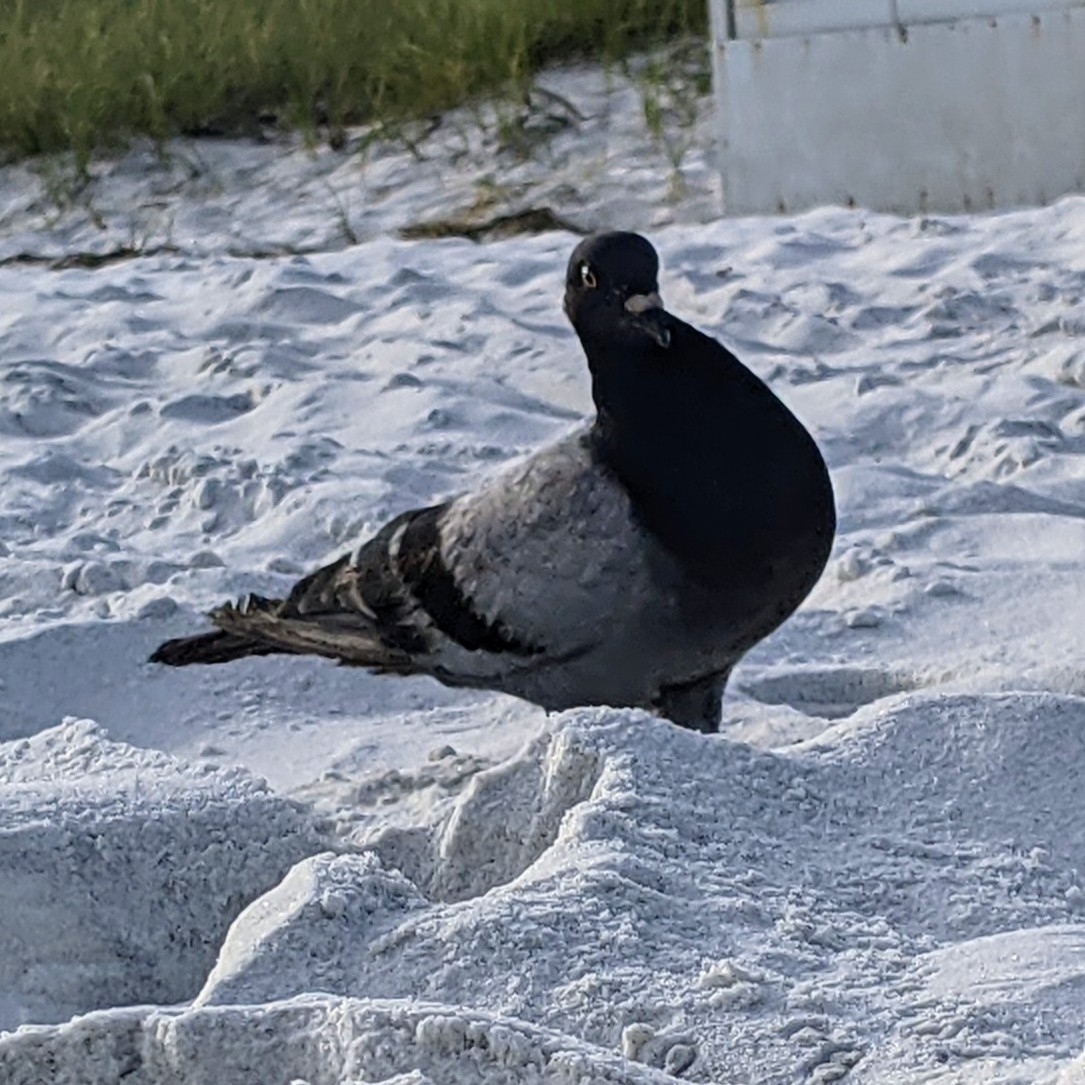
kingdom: Animalia
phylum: Chordata
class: Aves
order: Columbiformes
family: Columbidae
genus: Columba
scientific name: Columba livia
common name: Rock pigeon
